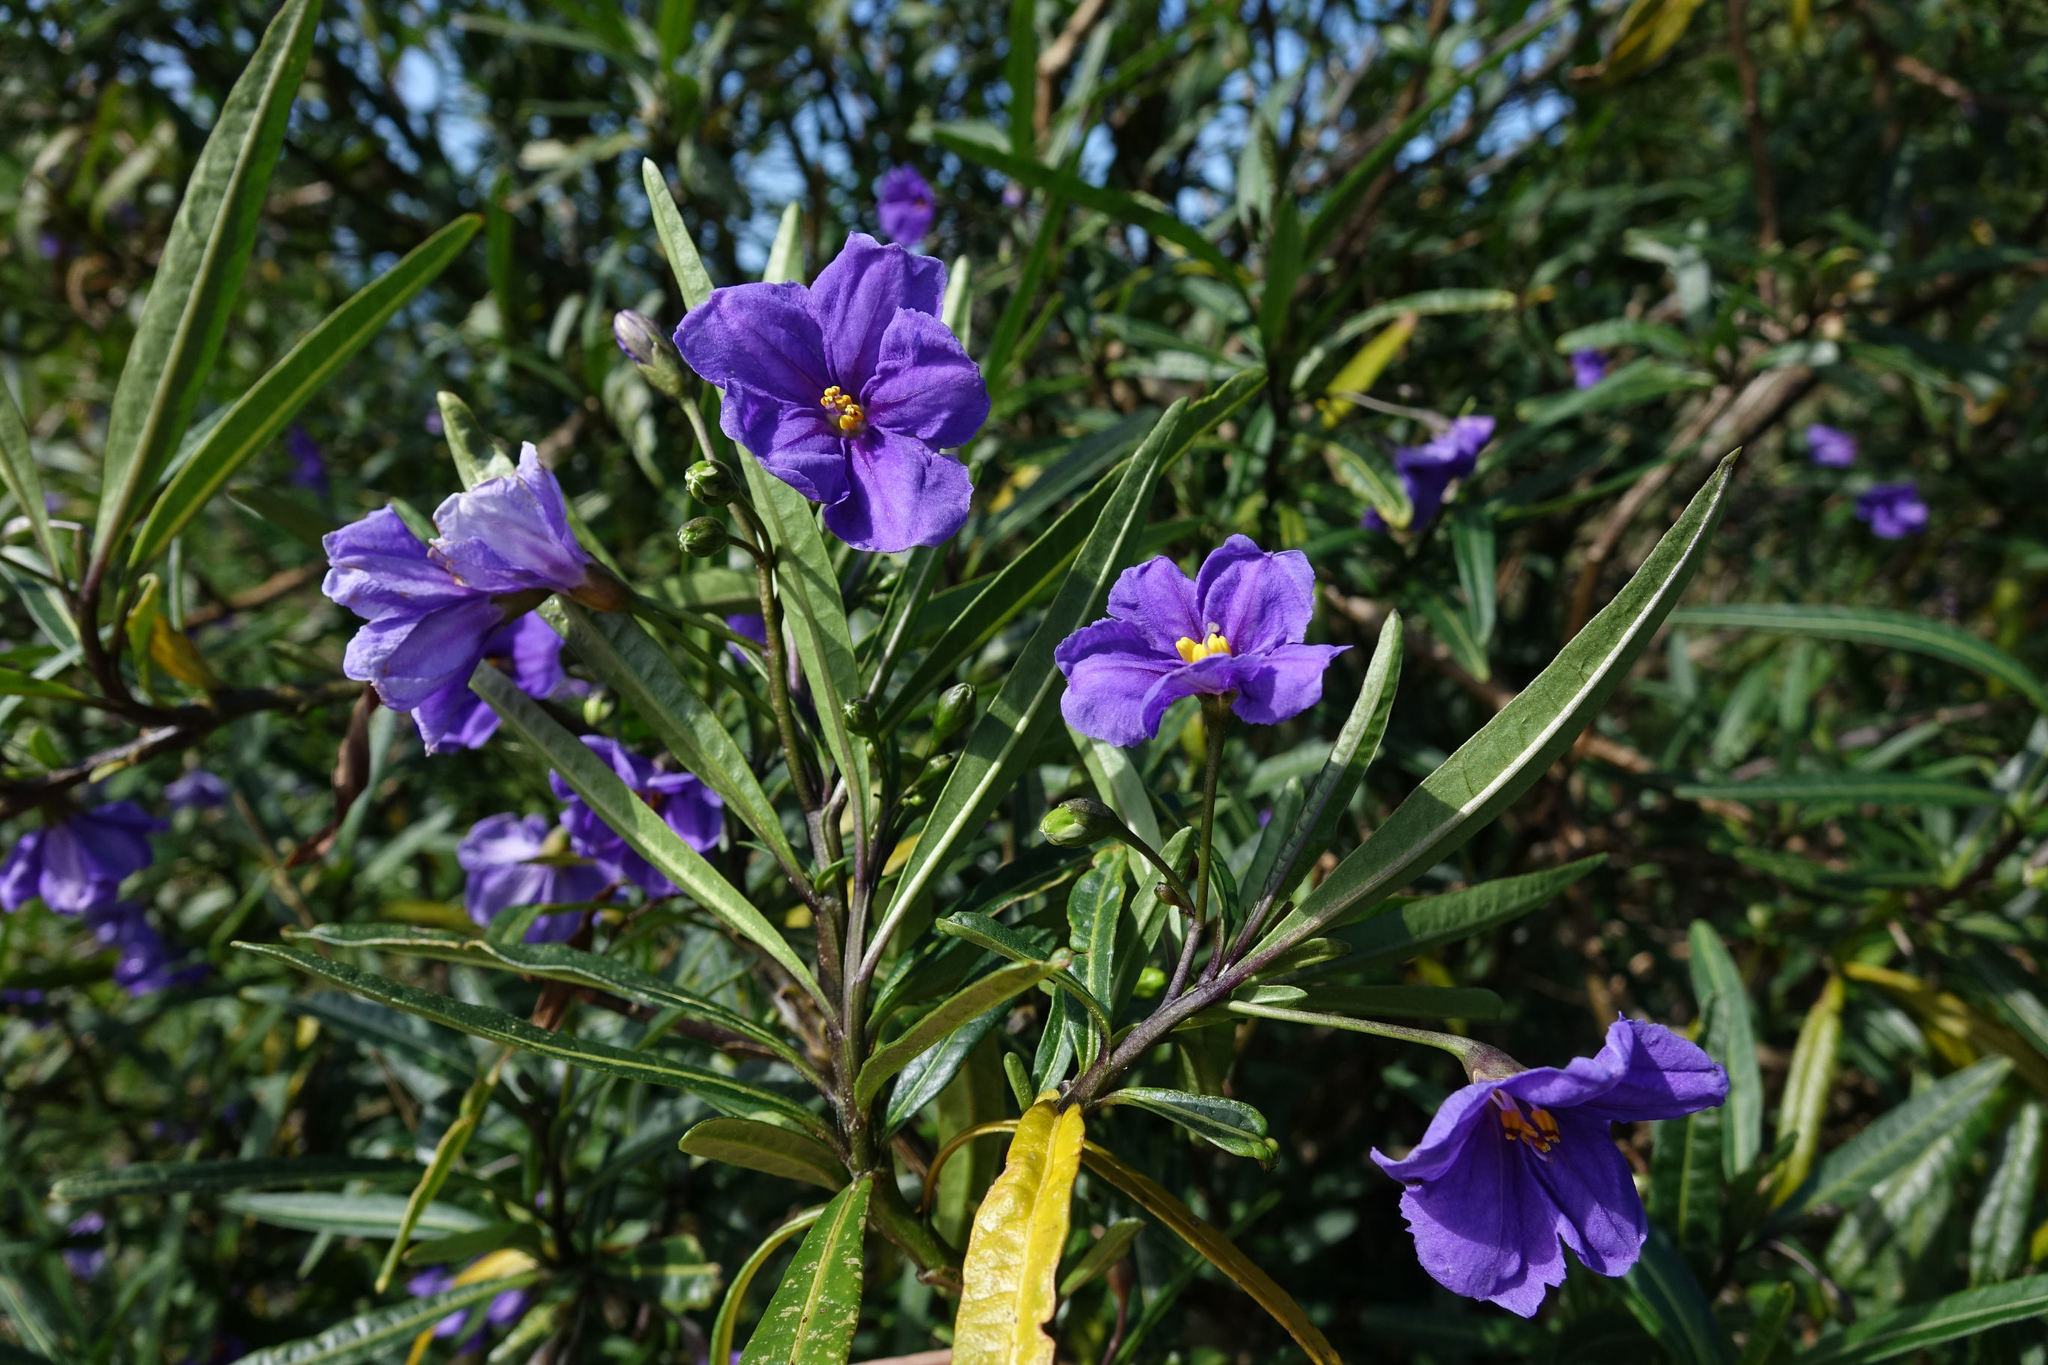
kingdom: Plantae
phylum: Tracheophyta
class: Magnoliopsida
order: Solanales
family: Solanaceae
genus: Solanum
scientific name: Solanum laciniatum
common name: Kangaroo-apple
